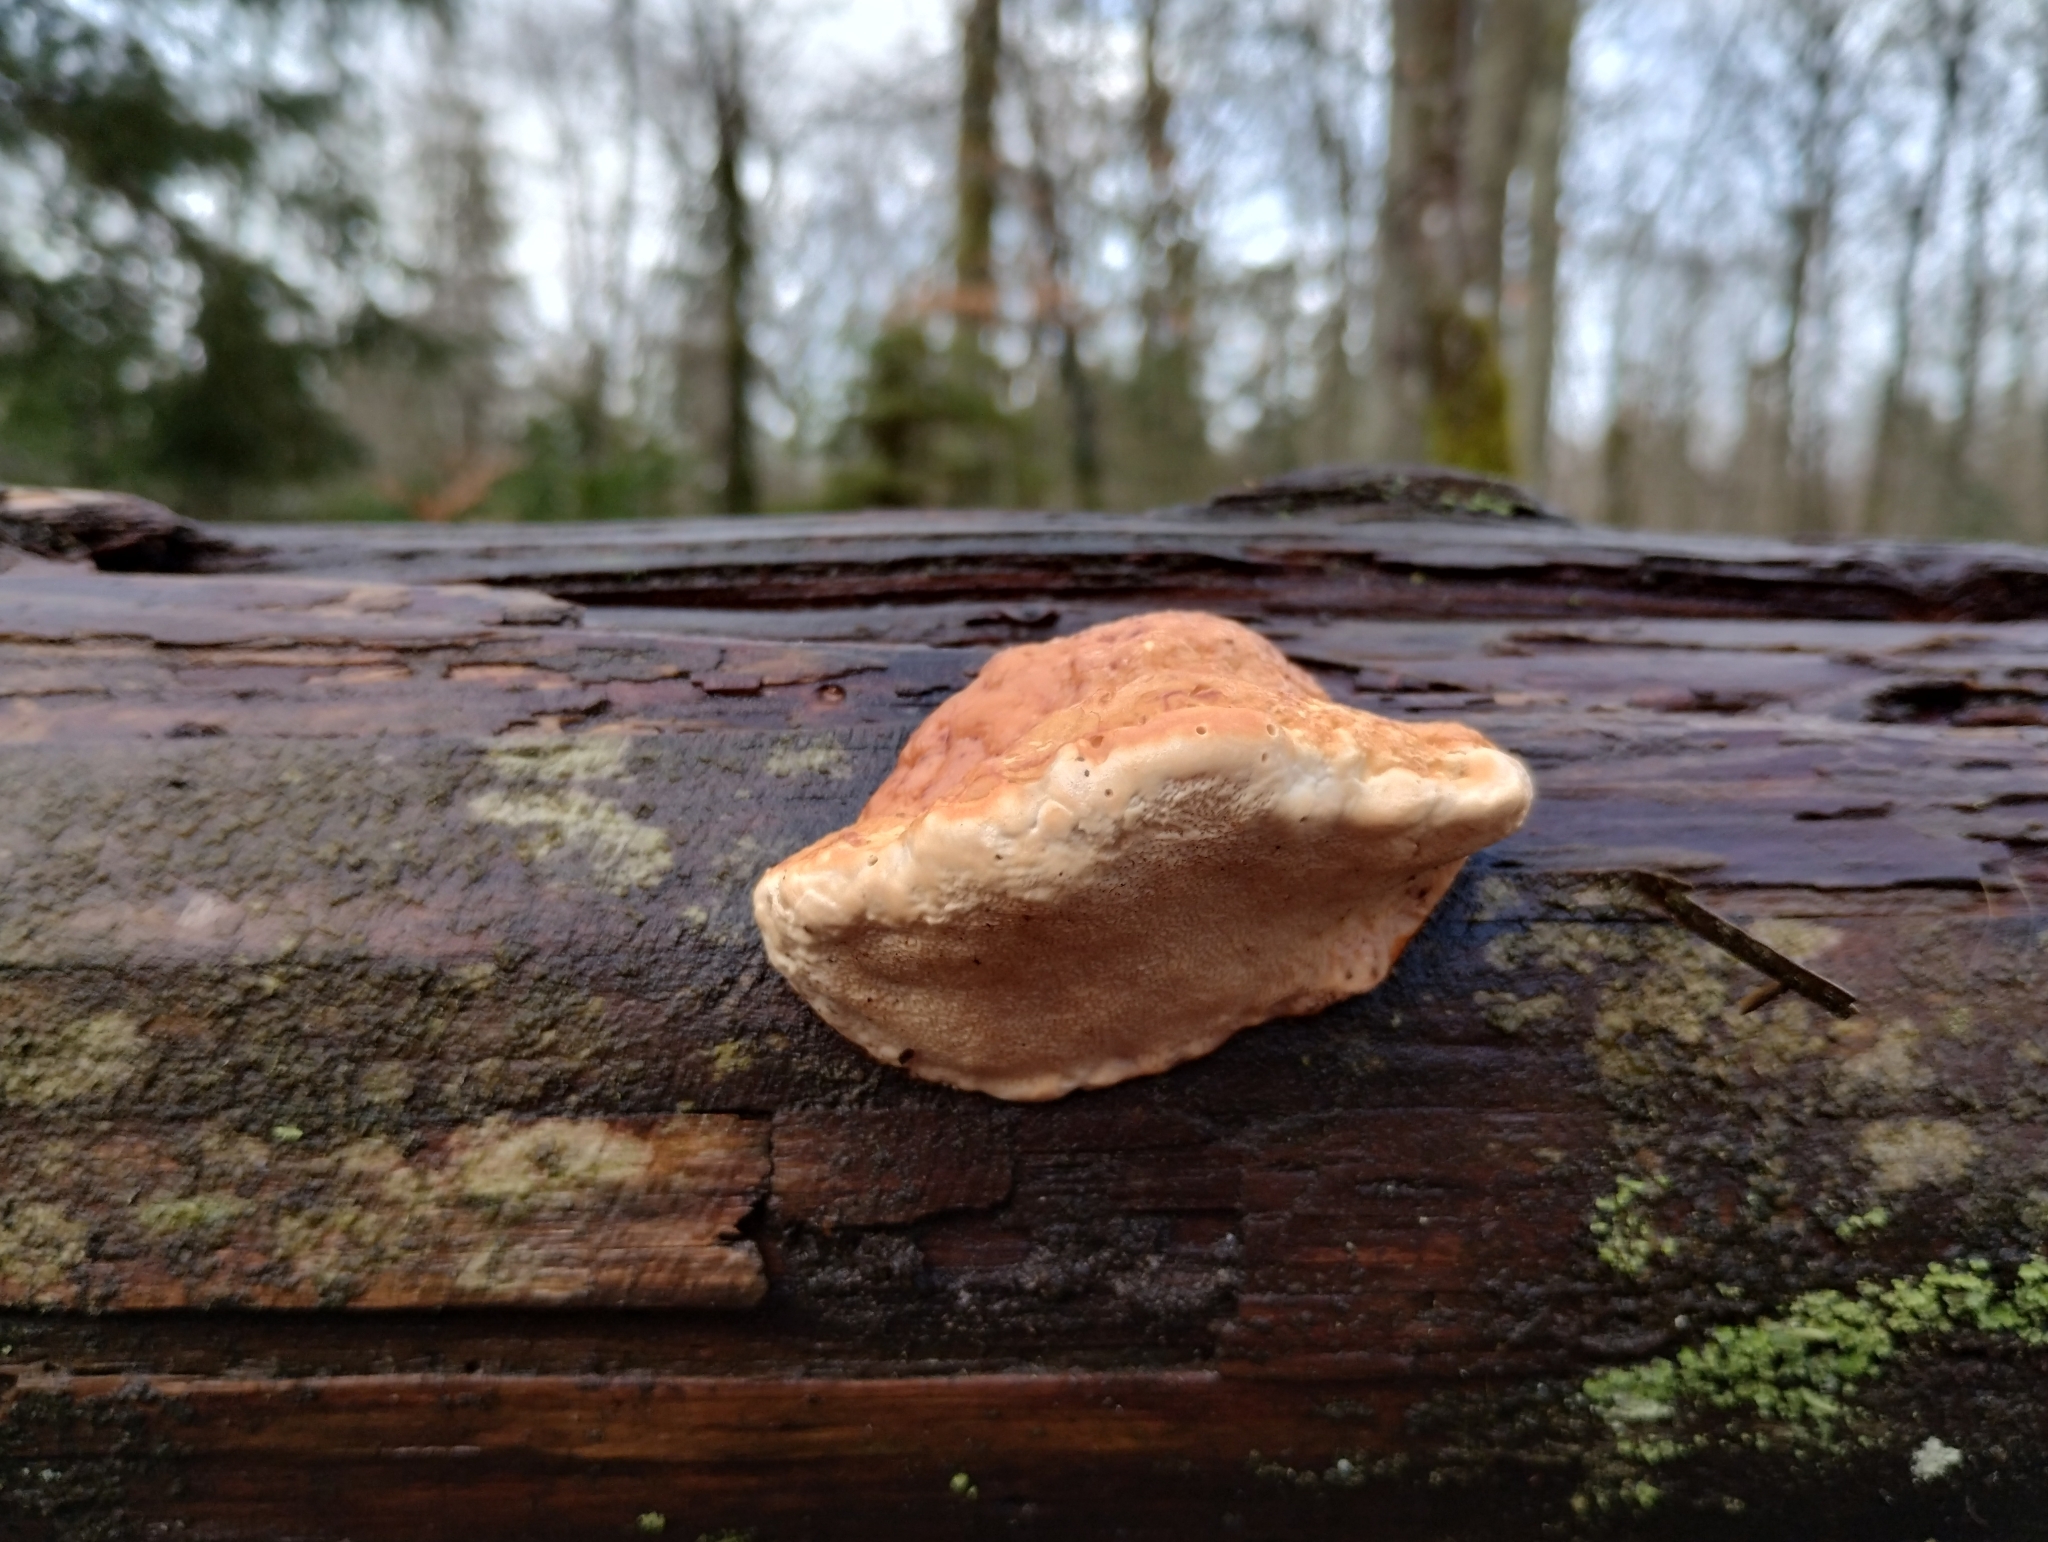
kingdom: Fungi
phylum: Basidiomycota
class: Agaricomycetes
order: Polyporales
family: Fomitopsidaceae
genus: Fomitopsis
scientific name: Fomitopsis pinicola
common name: Red-belted bracket
